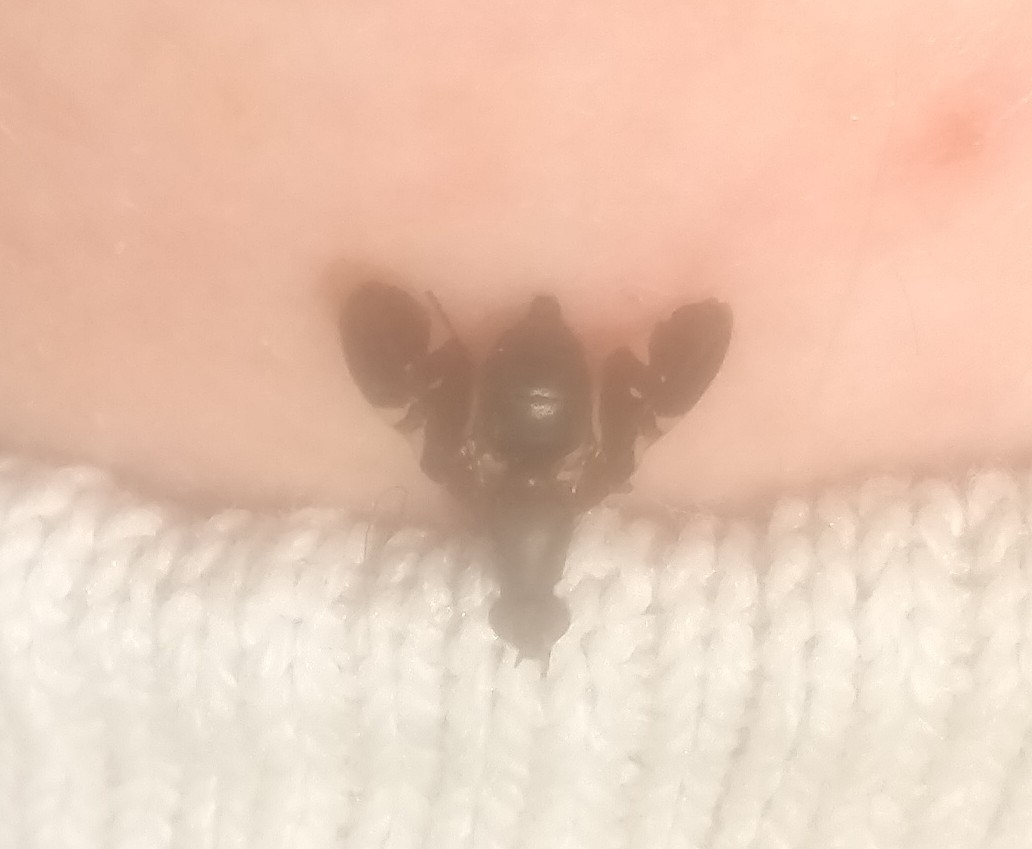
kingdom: Animalia
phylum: Arthropoda
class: Insecta
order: Diptera
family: Ulidiidae
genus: Delphinia
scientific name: Delphinia picta
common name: Common picture-winged fly
